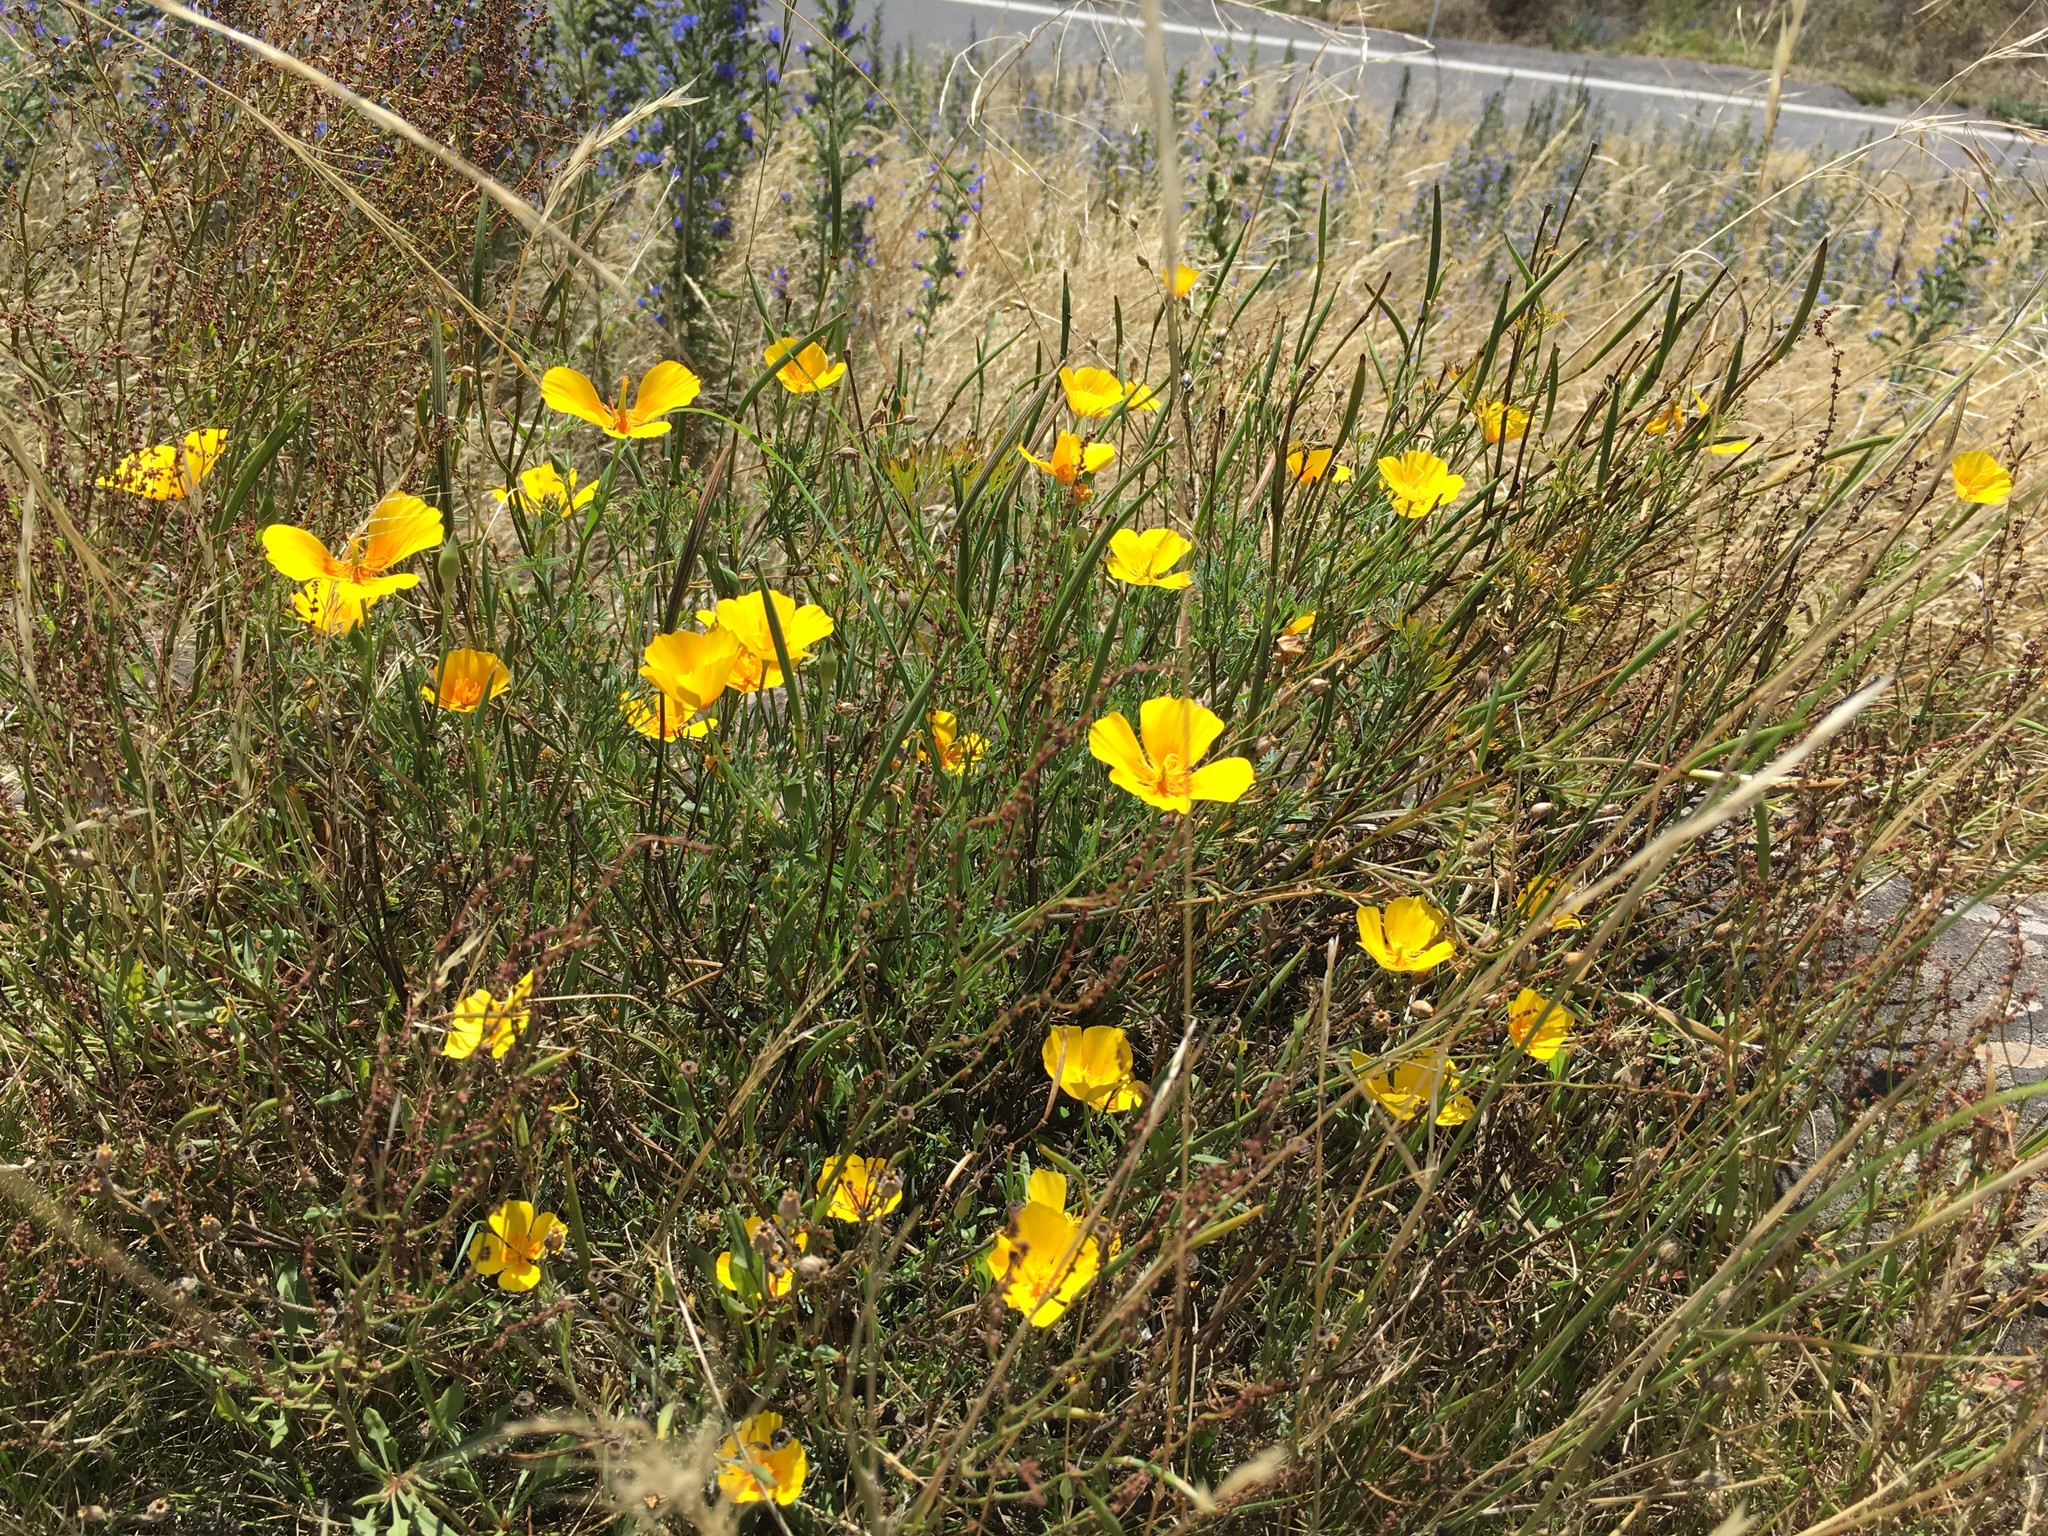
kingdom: Plantae
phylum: Tracheophyta
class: Magnoliopsida
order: Ranunculales
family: Papaveraceae
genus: Eschscholzia
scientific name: Eschscholzia californica
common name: California poppy
